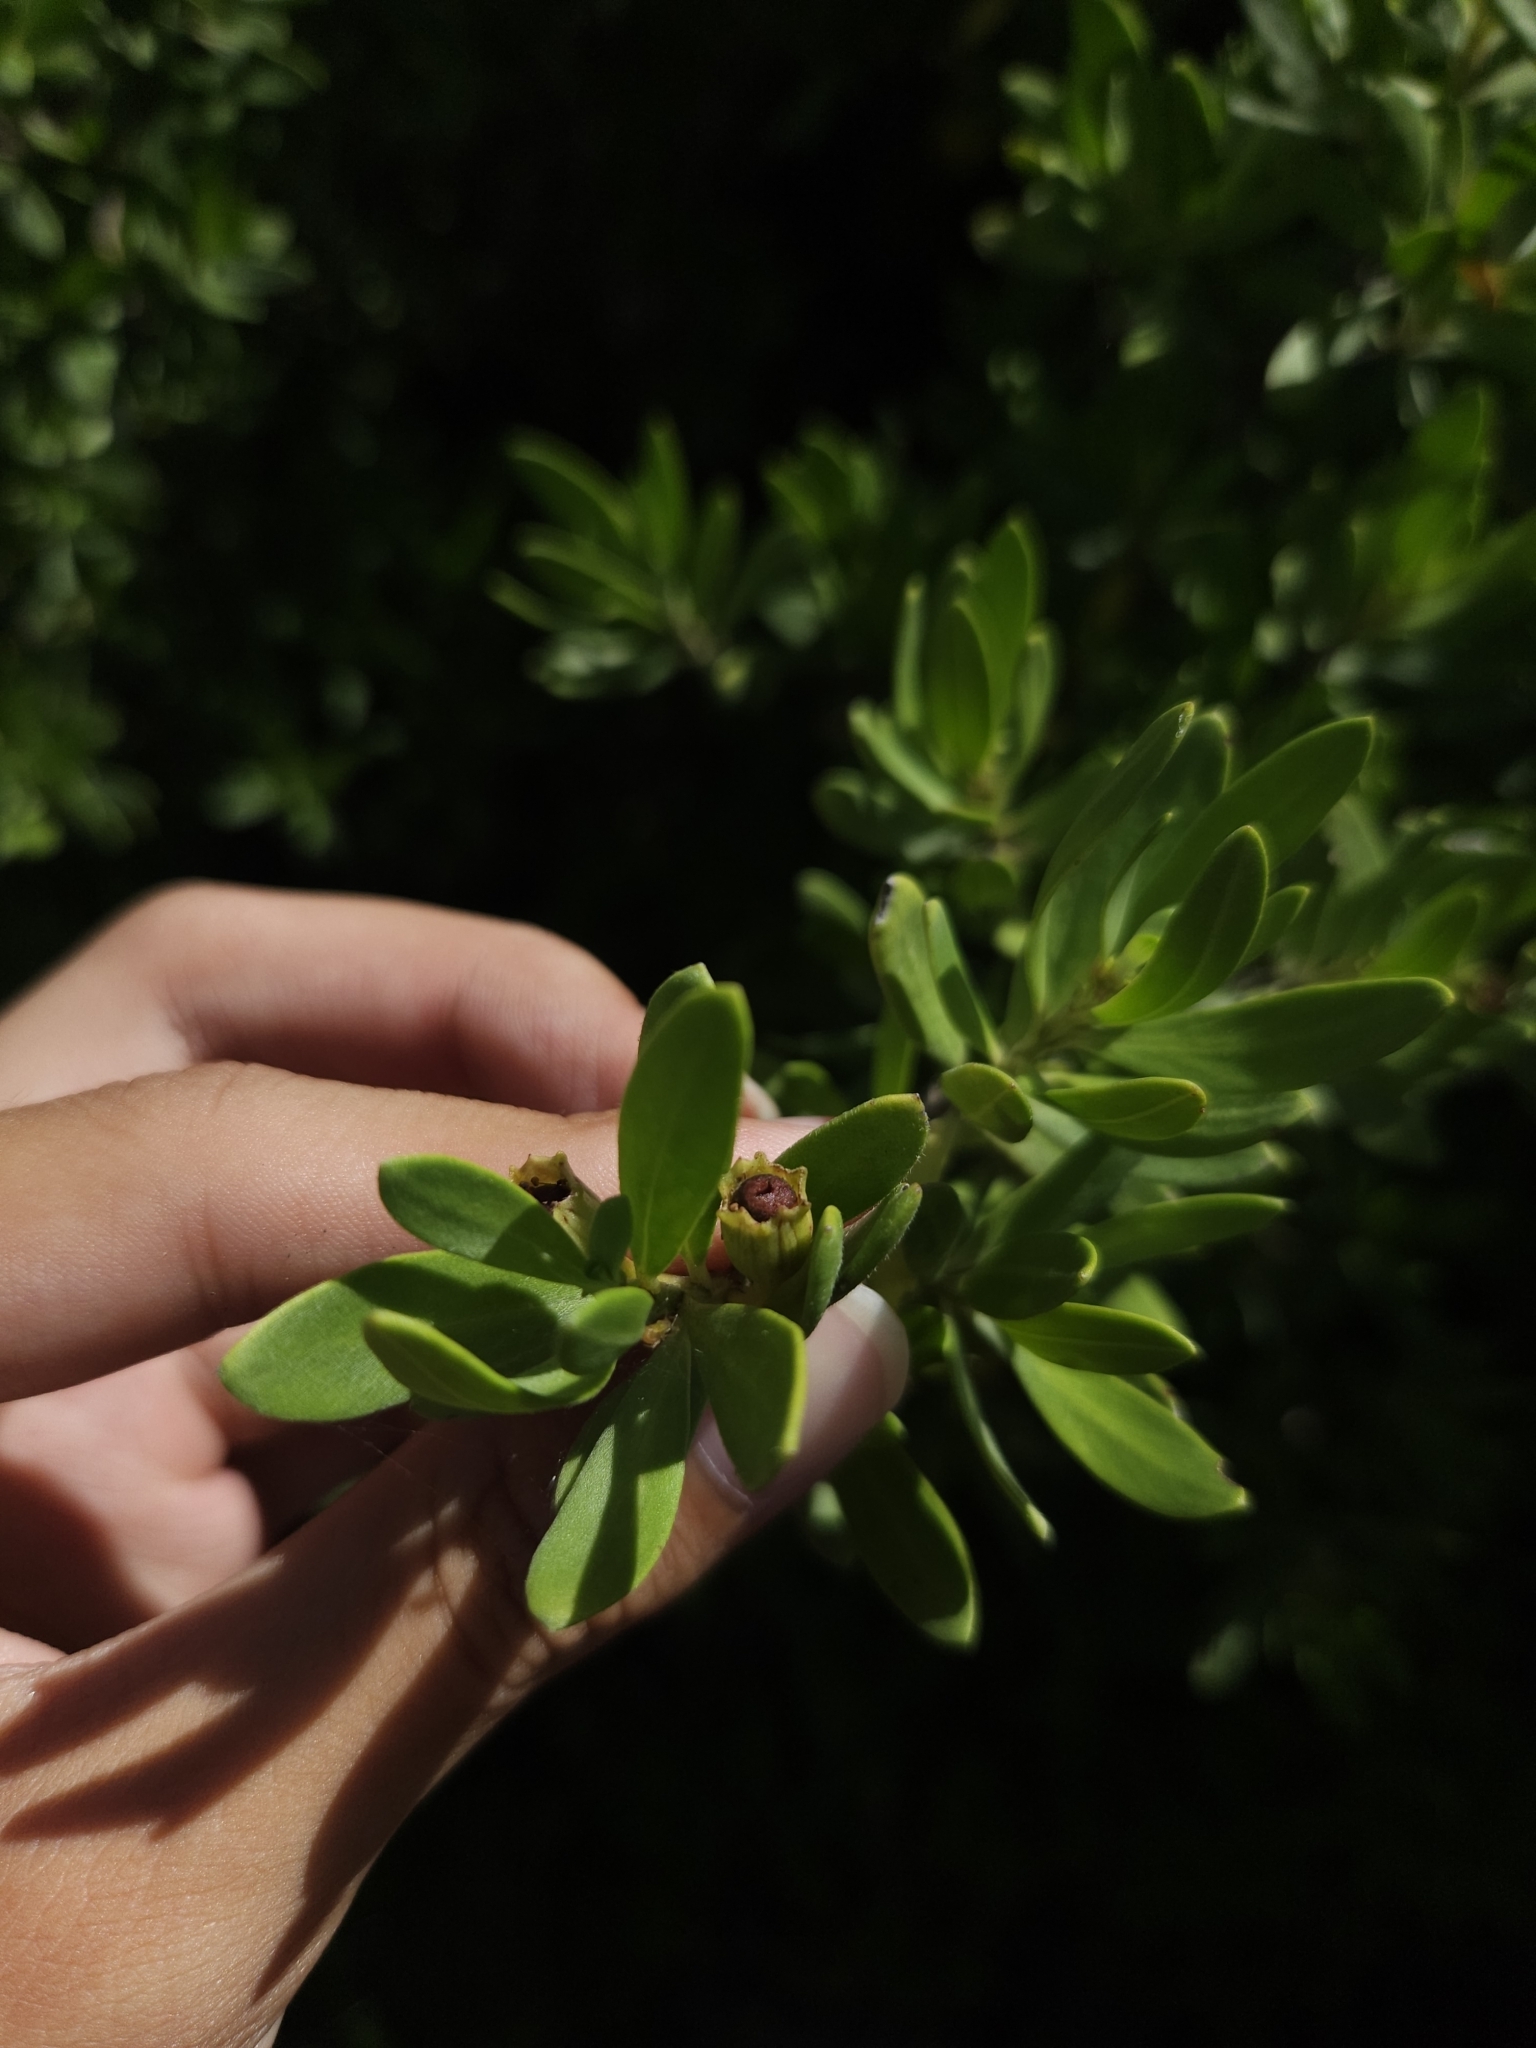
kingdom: Plantae
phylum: Tracheophyta
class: Magnoliopsida
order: Myrtales
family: Lythraceae
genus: Pemphis
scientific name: Pemphis acidula
